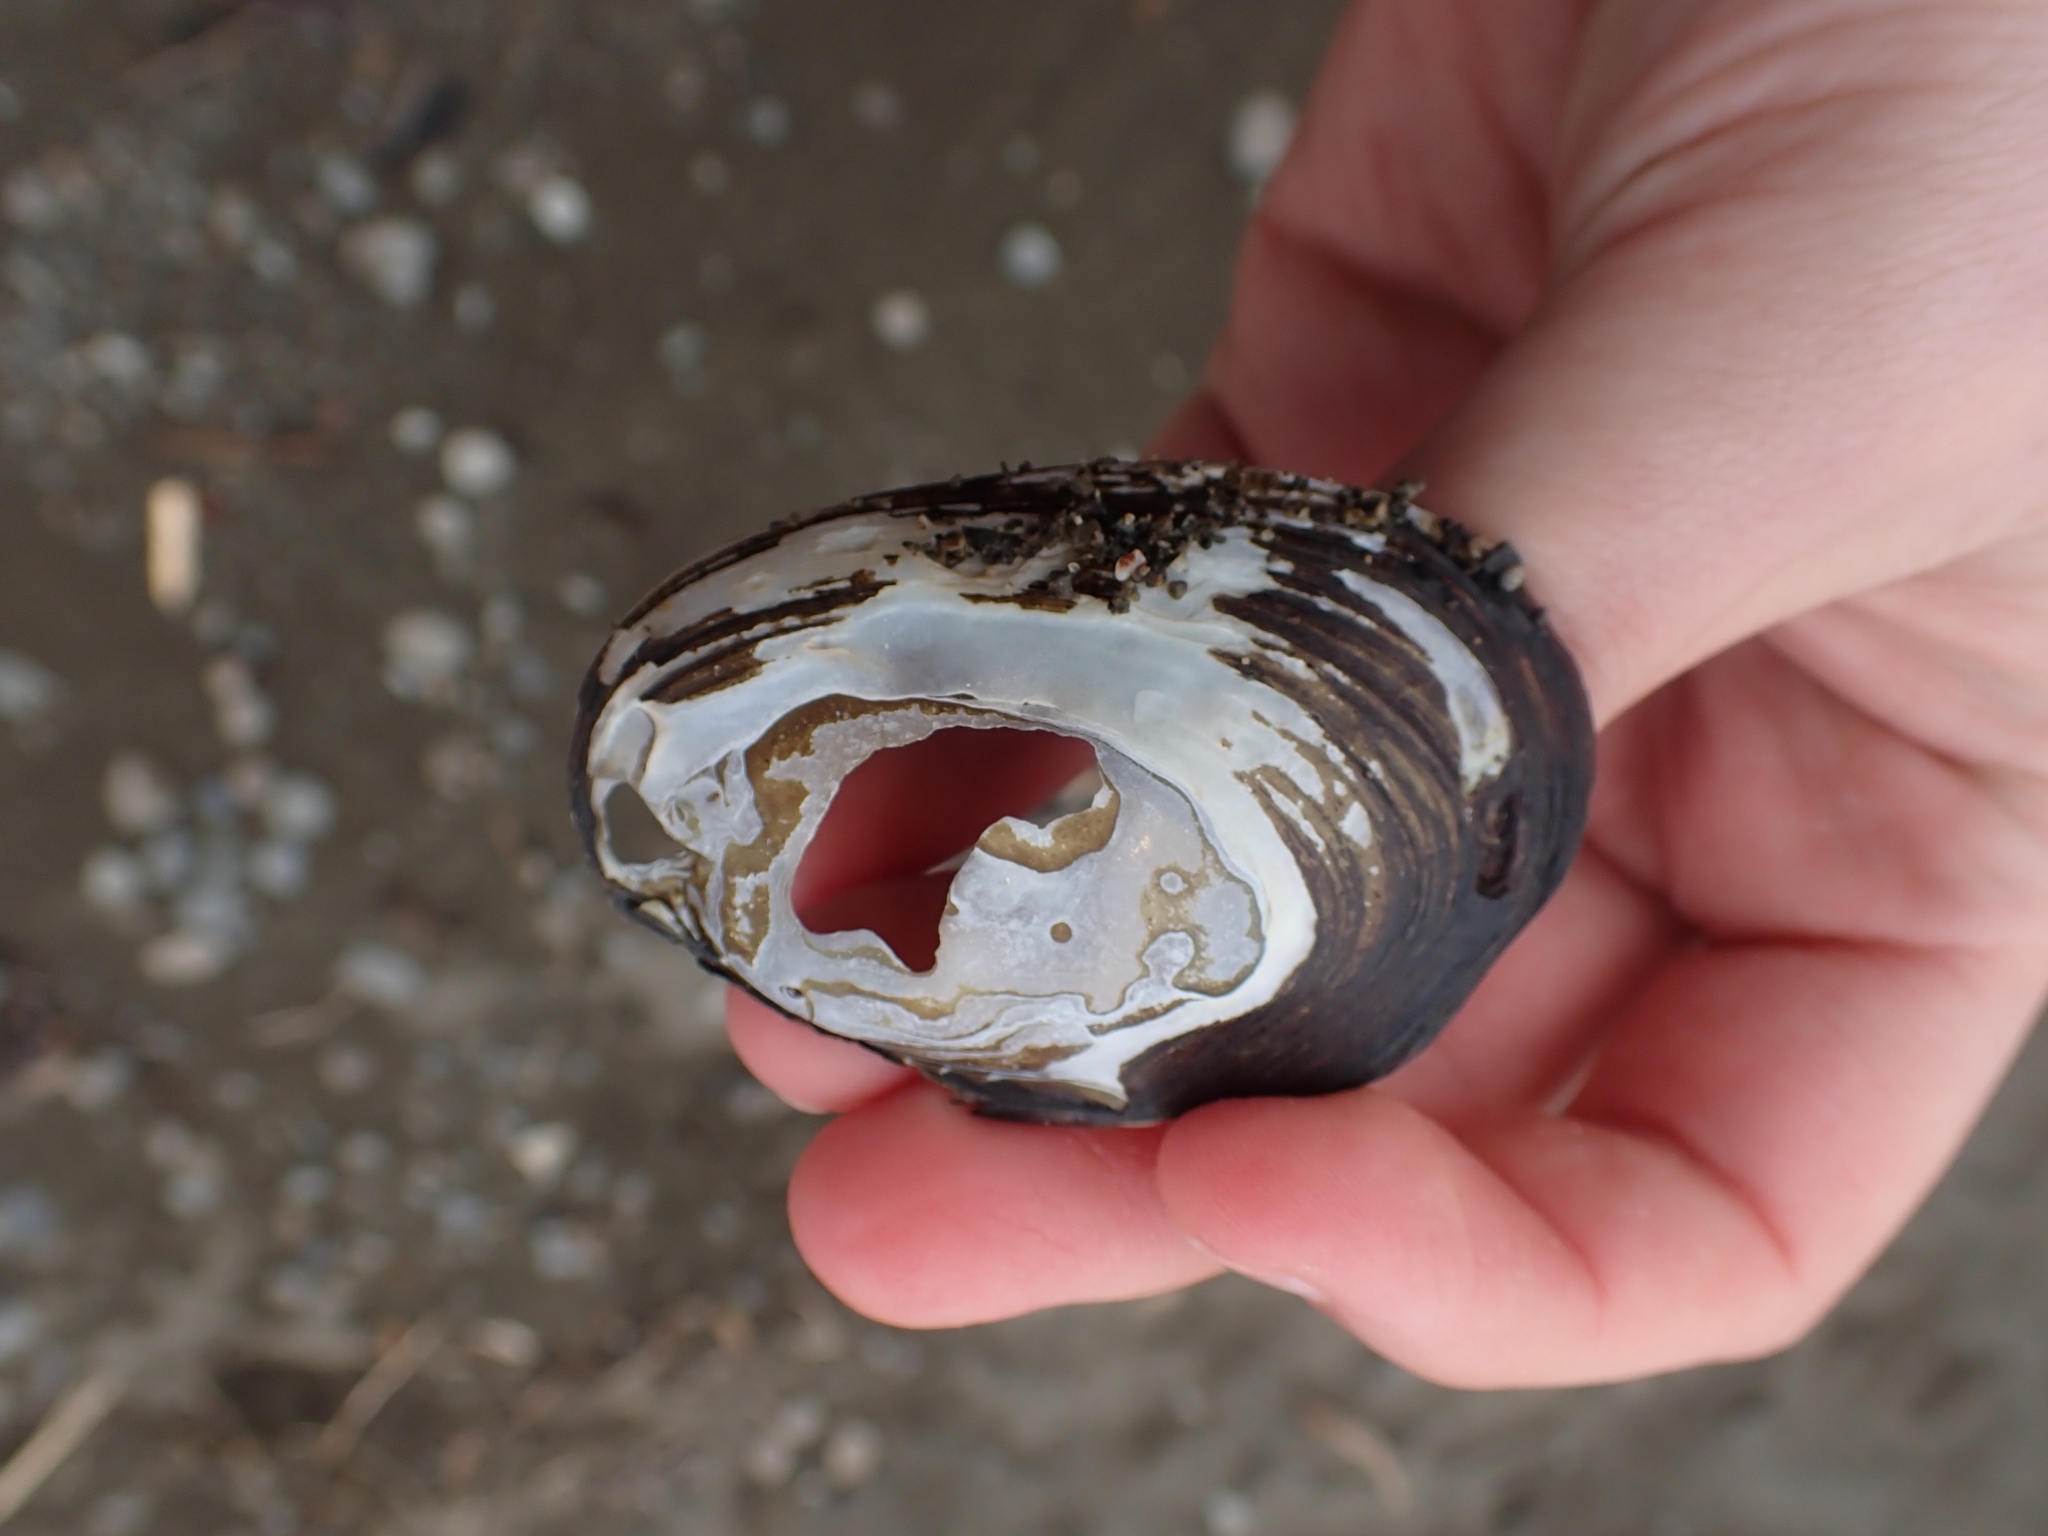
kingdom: Animalia
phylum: Mollusca
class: Bivalvia
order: Unionida
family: Hyriidae
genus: Echyridella
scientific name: Echyridella menziesii
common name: New zealand freshwater mussel
